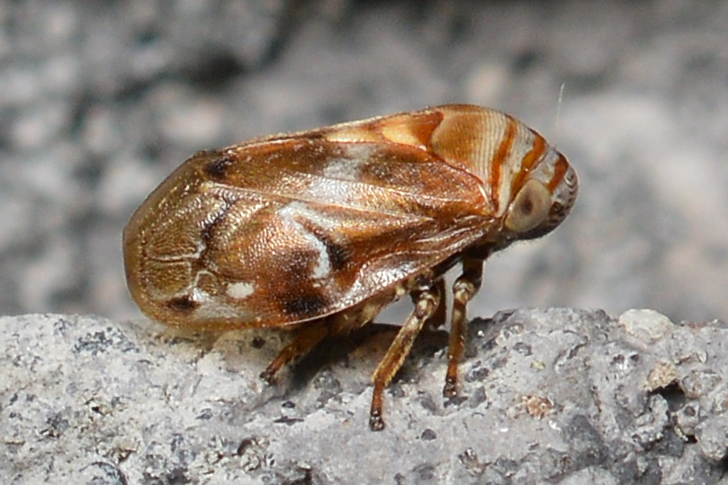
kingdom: Animalia
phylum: Arthropoda
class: Insecta
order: Hemiptera
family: Clastopteridae
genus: Clastoptera
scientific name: Clastoptera obtusa
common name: Alder spittlebug
